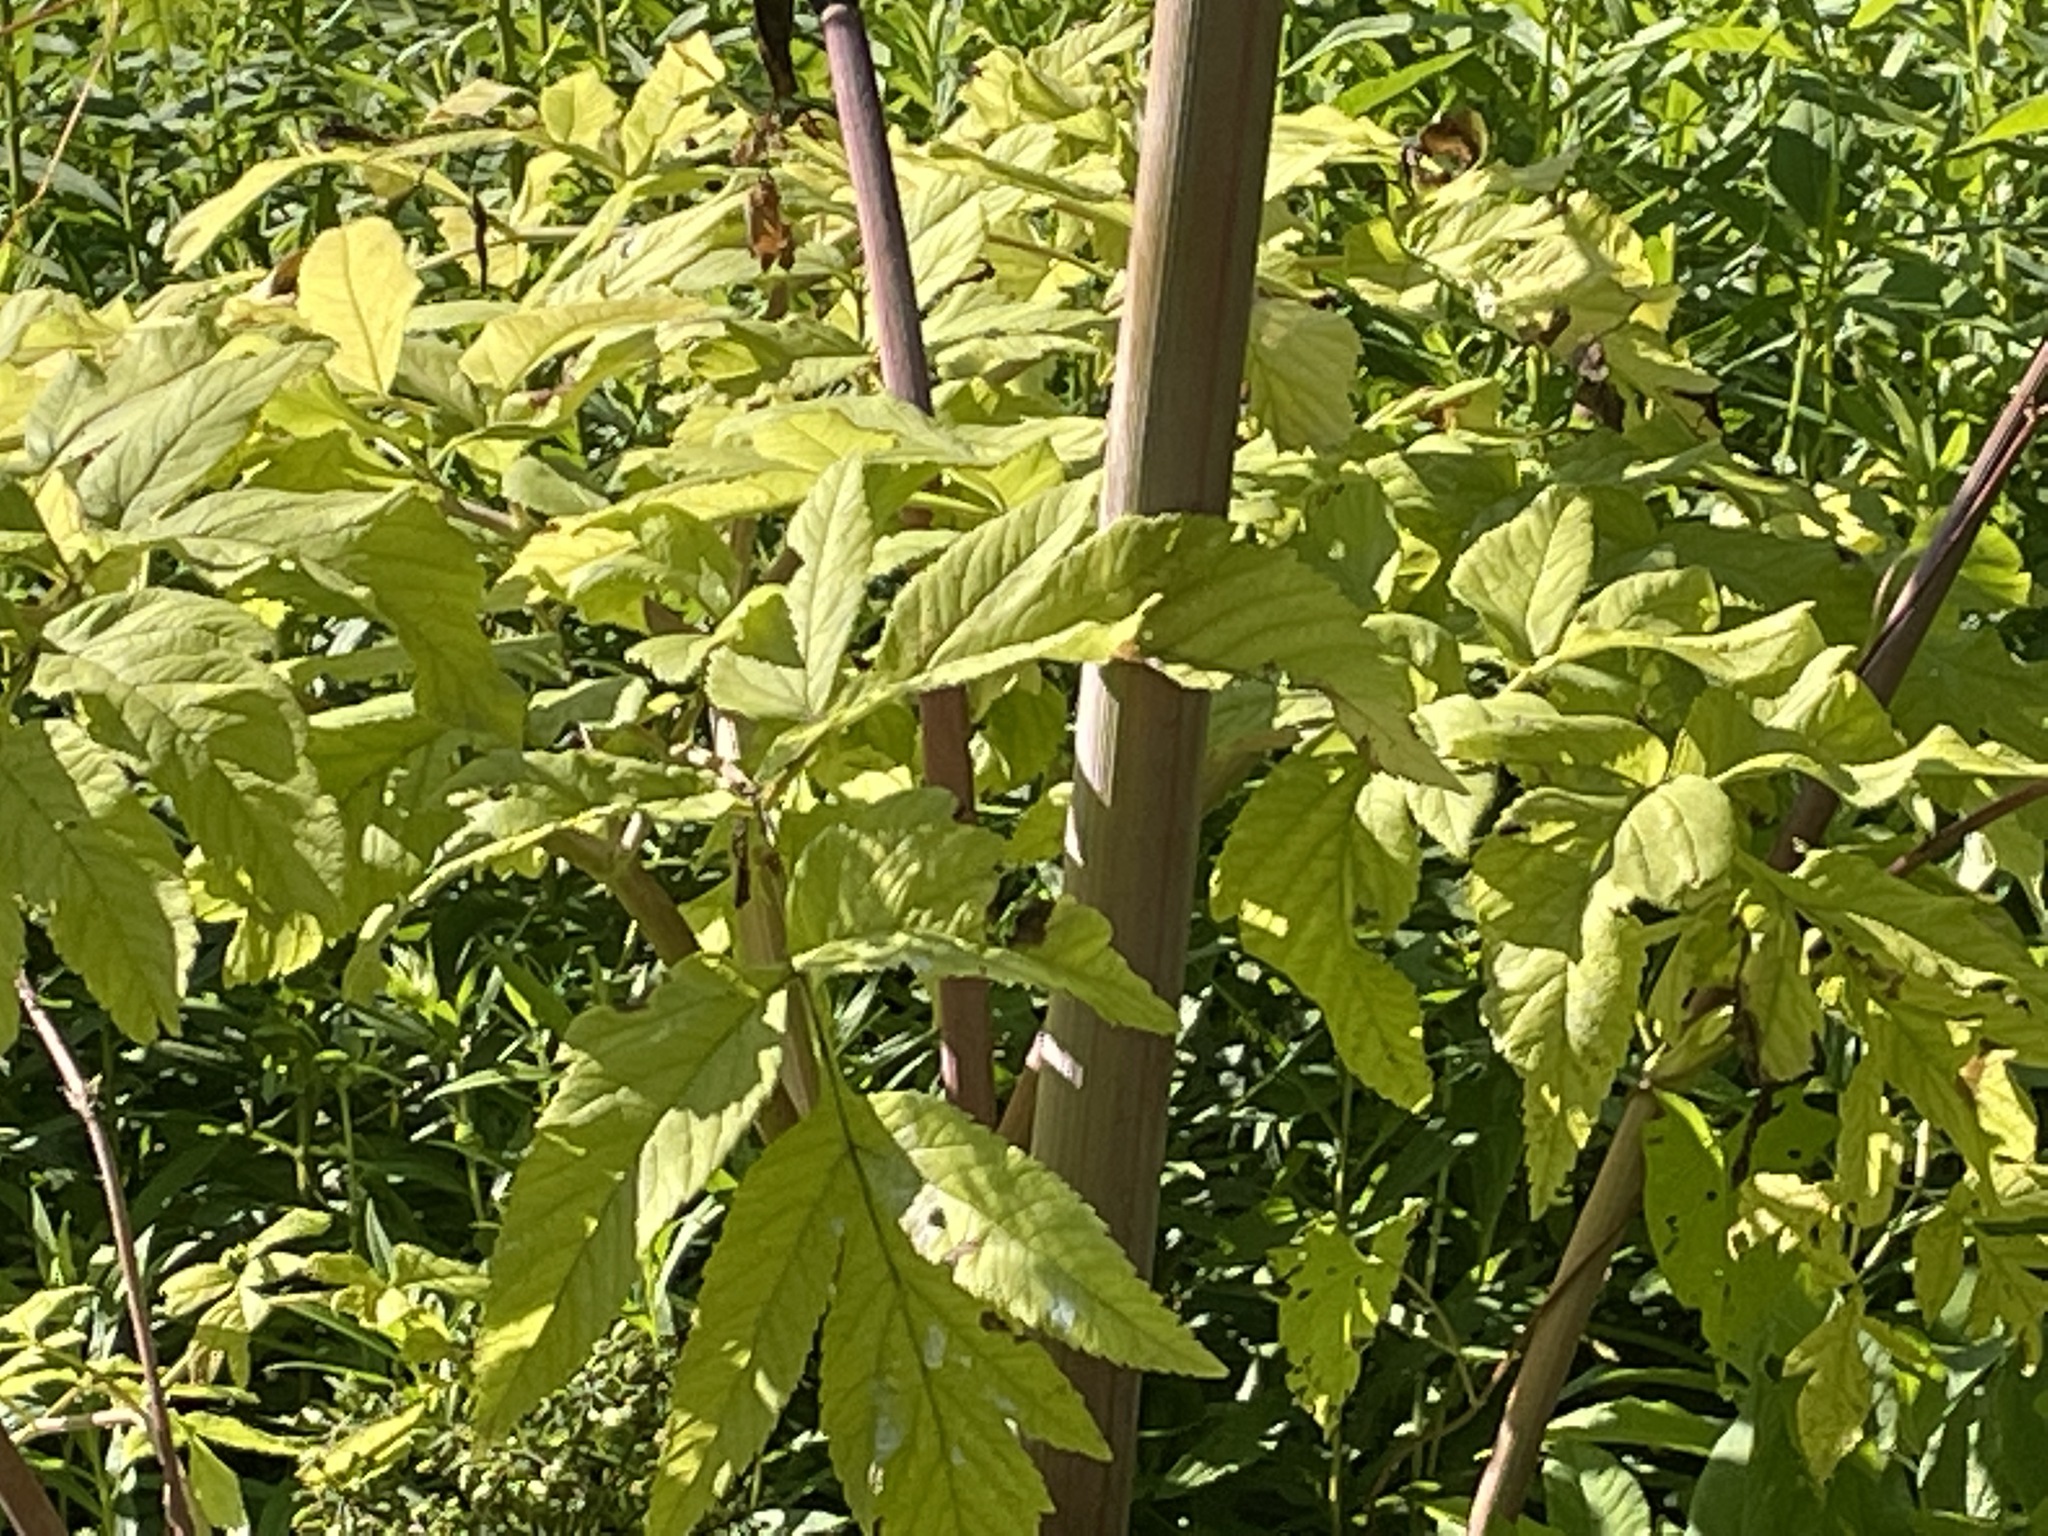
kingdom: Plantae
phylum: Tracheophyta
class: Magnoliopsida
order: Apiales
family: Apiaceae
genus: Angelica
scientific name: Angelica atropurpurea
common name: Great angelica
